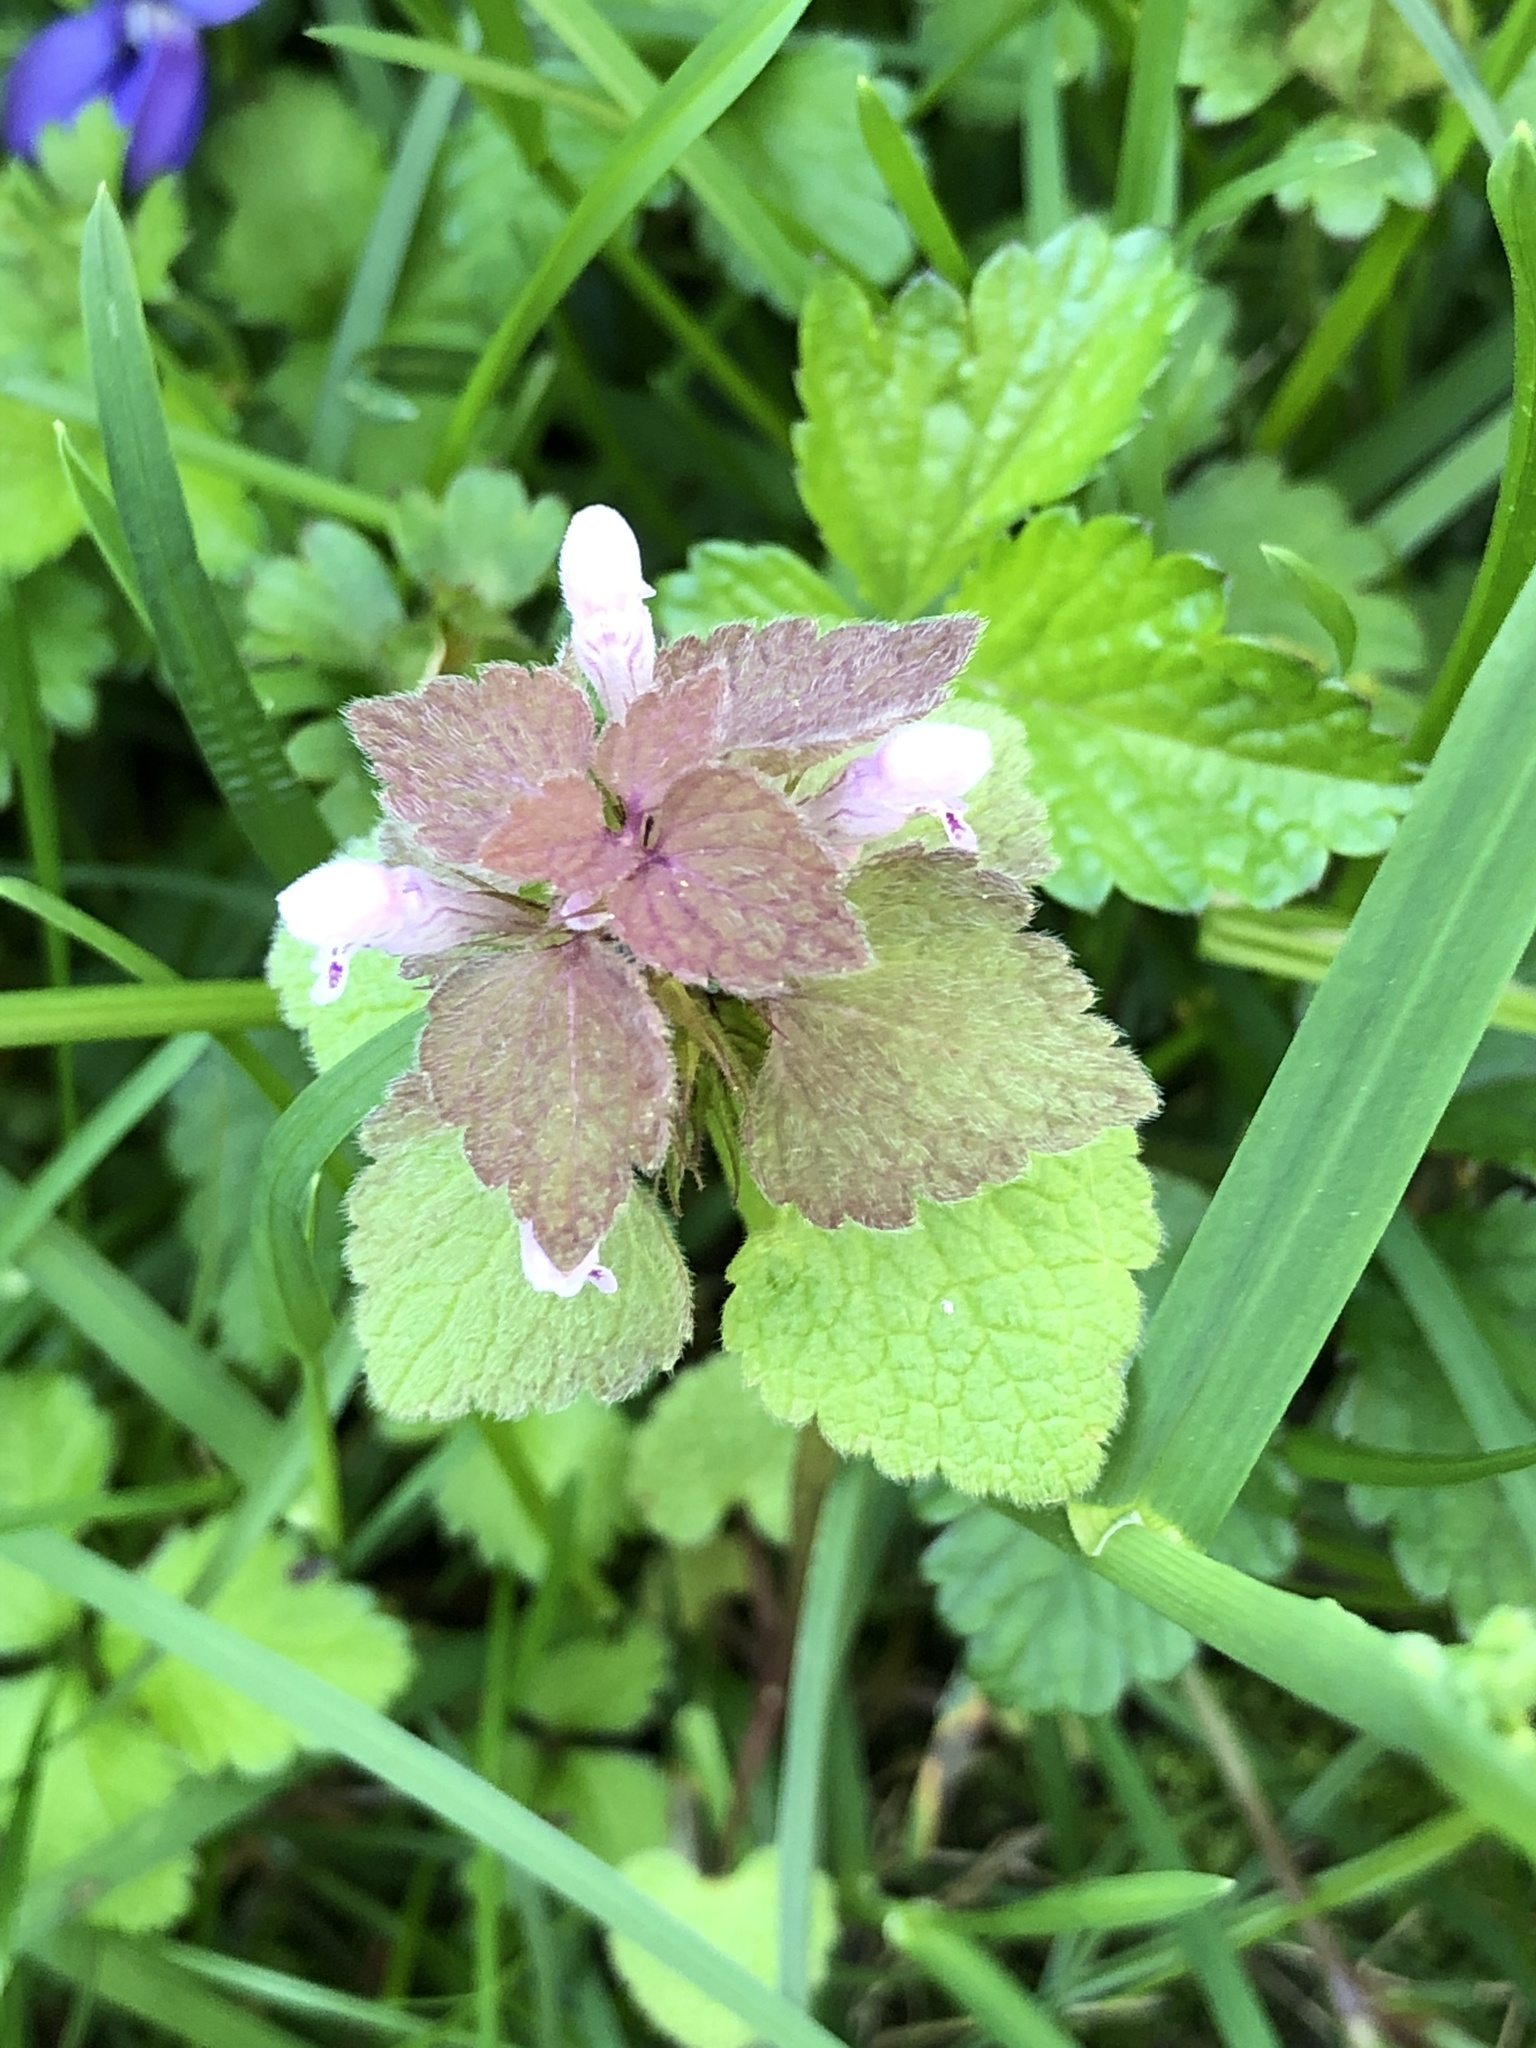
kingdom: Plantae
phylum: Tracheophyta
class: Magnoliopsida
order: Lamiales
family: Lamiaceae
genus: Lamium
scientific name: Lamium purpureum
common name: Red dead-nettle
